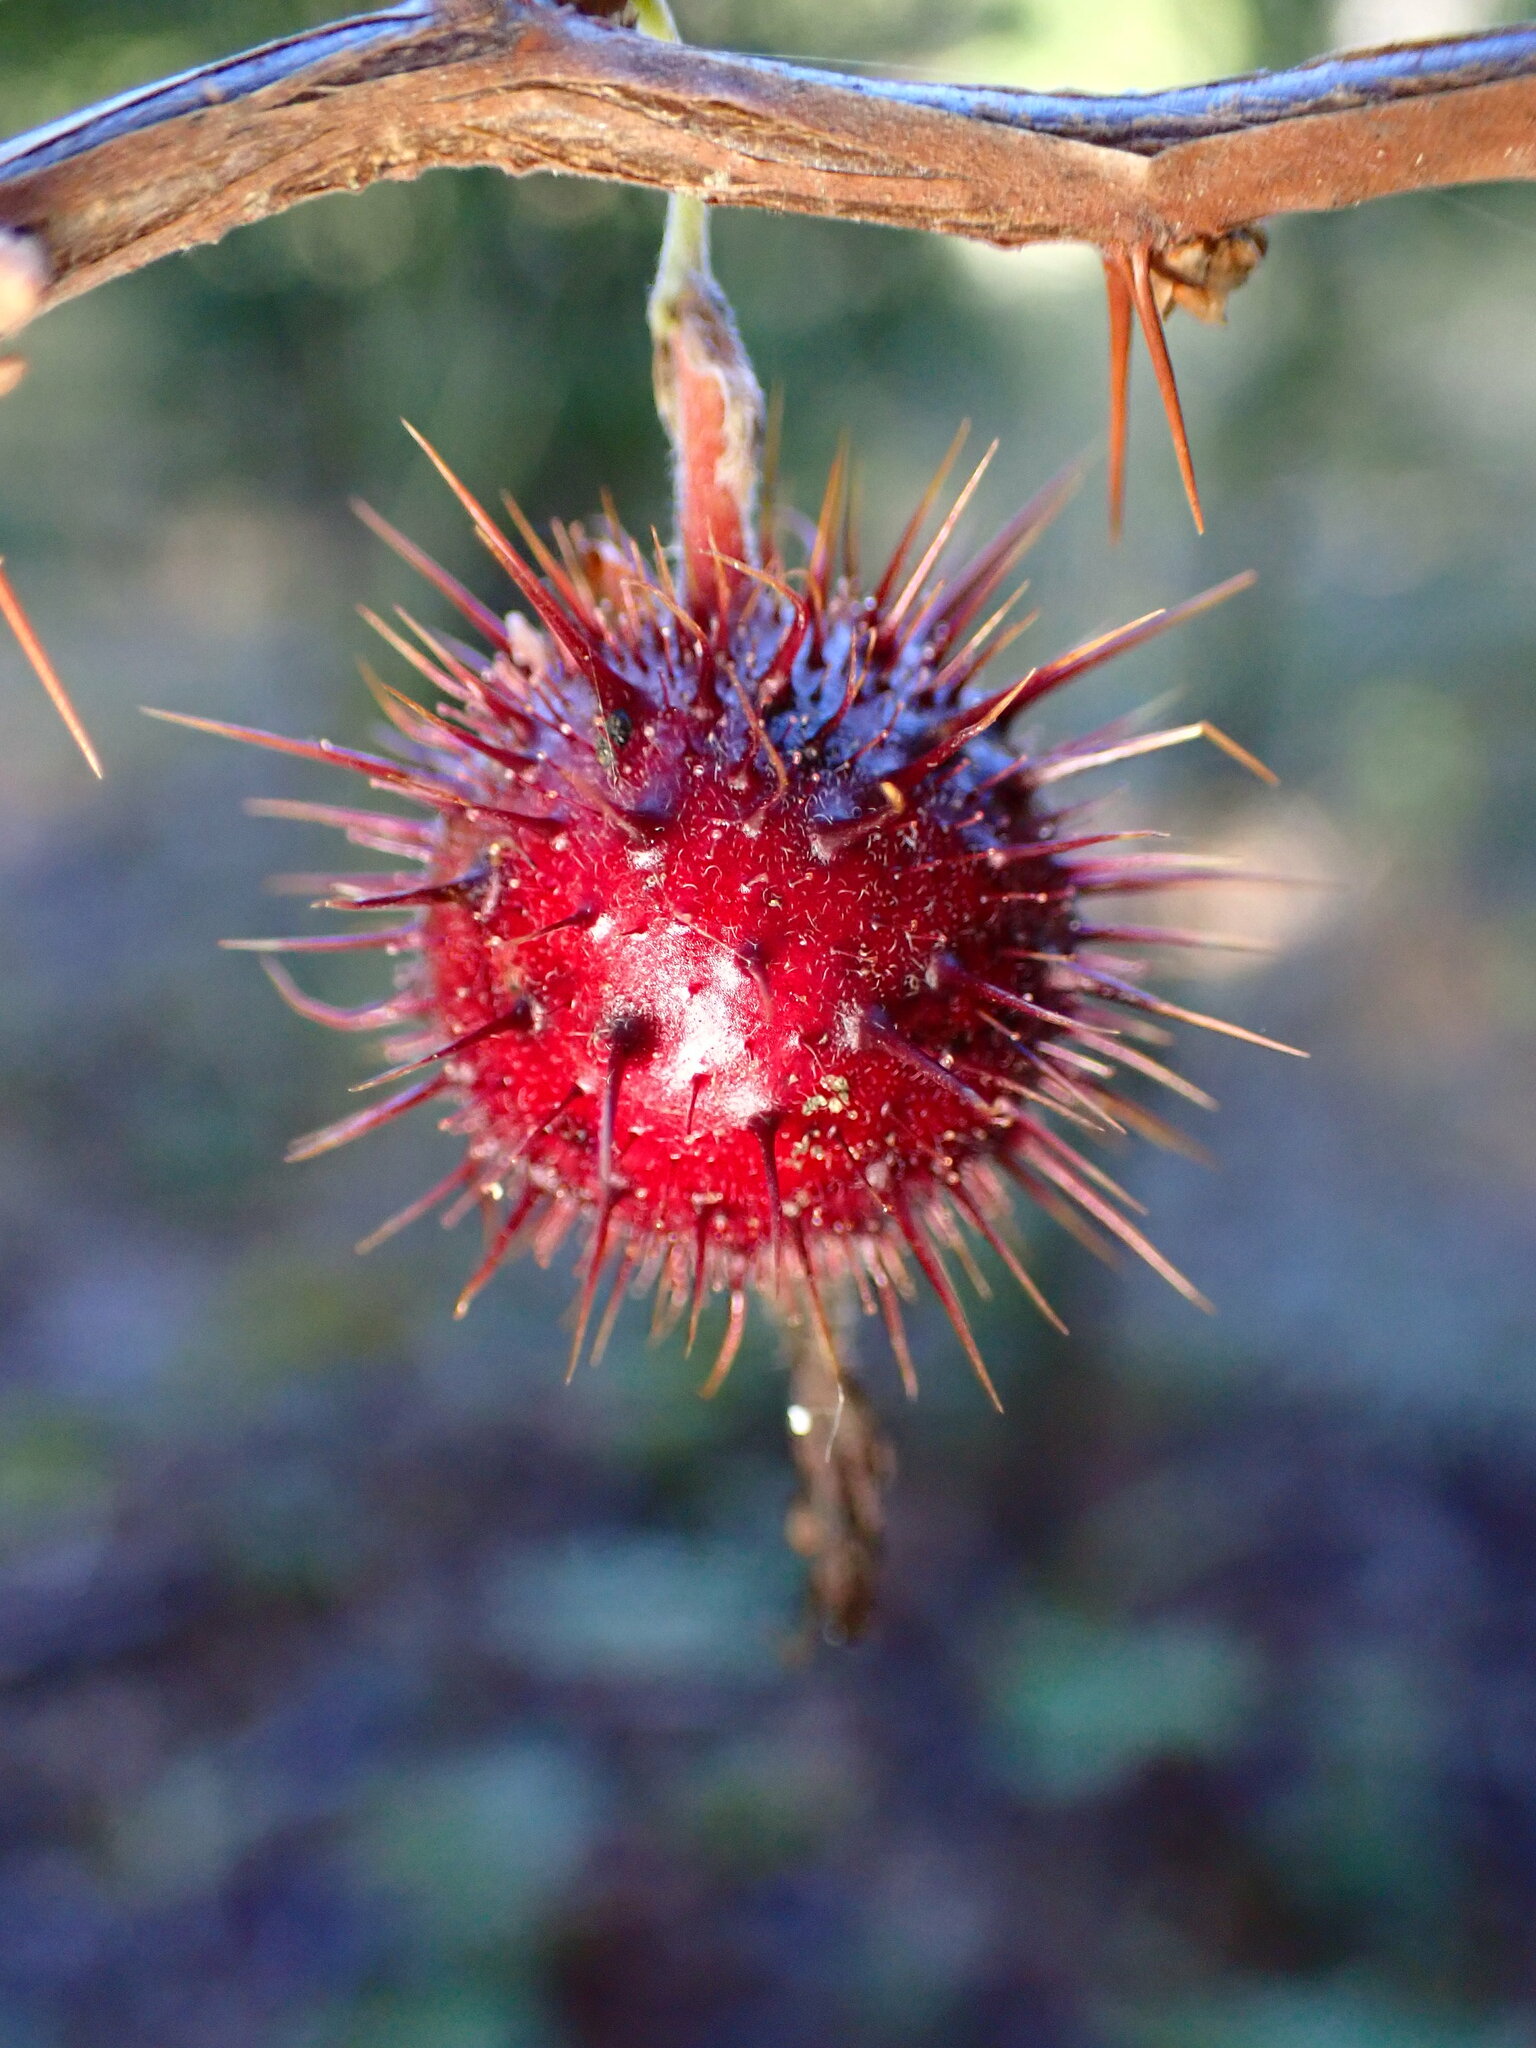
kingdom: Plantae
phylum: Tracheophyta
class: Magnoliopsida
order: Saxifragales
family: Grossulariaceae
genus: Ribes
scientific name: Ribes roezlii
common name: Sierra gooseberry
